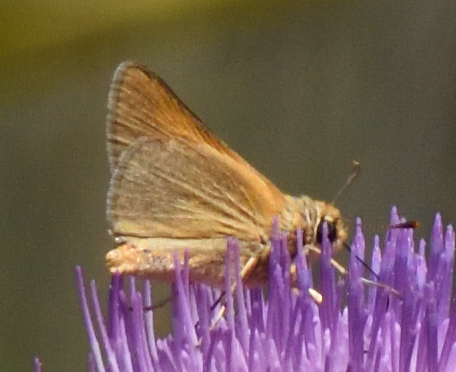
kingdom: Animalia
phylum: Arthropoda
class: Insecta
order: Lepidoptera
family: Hesperiidae
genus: Atrytone
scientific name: Atrytone arogos
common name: Arogos skipper
